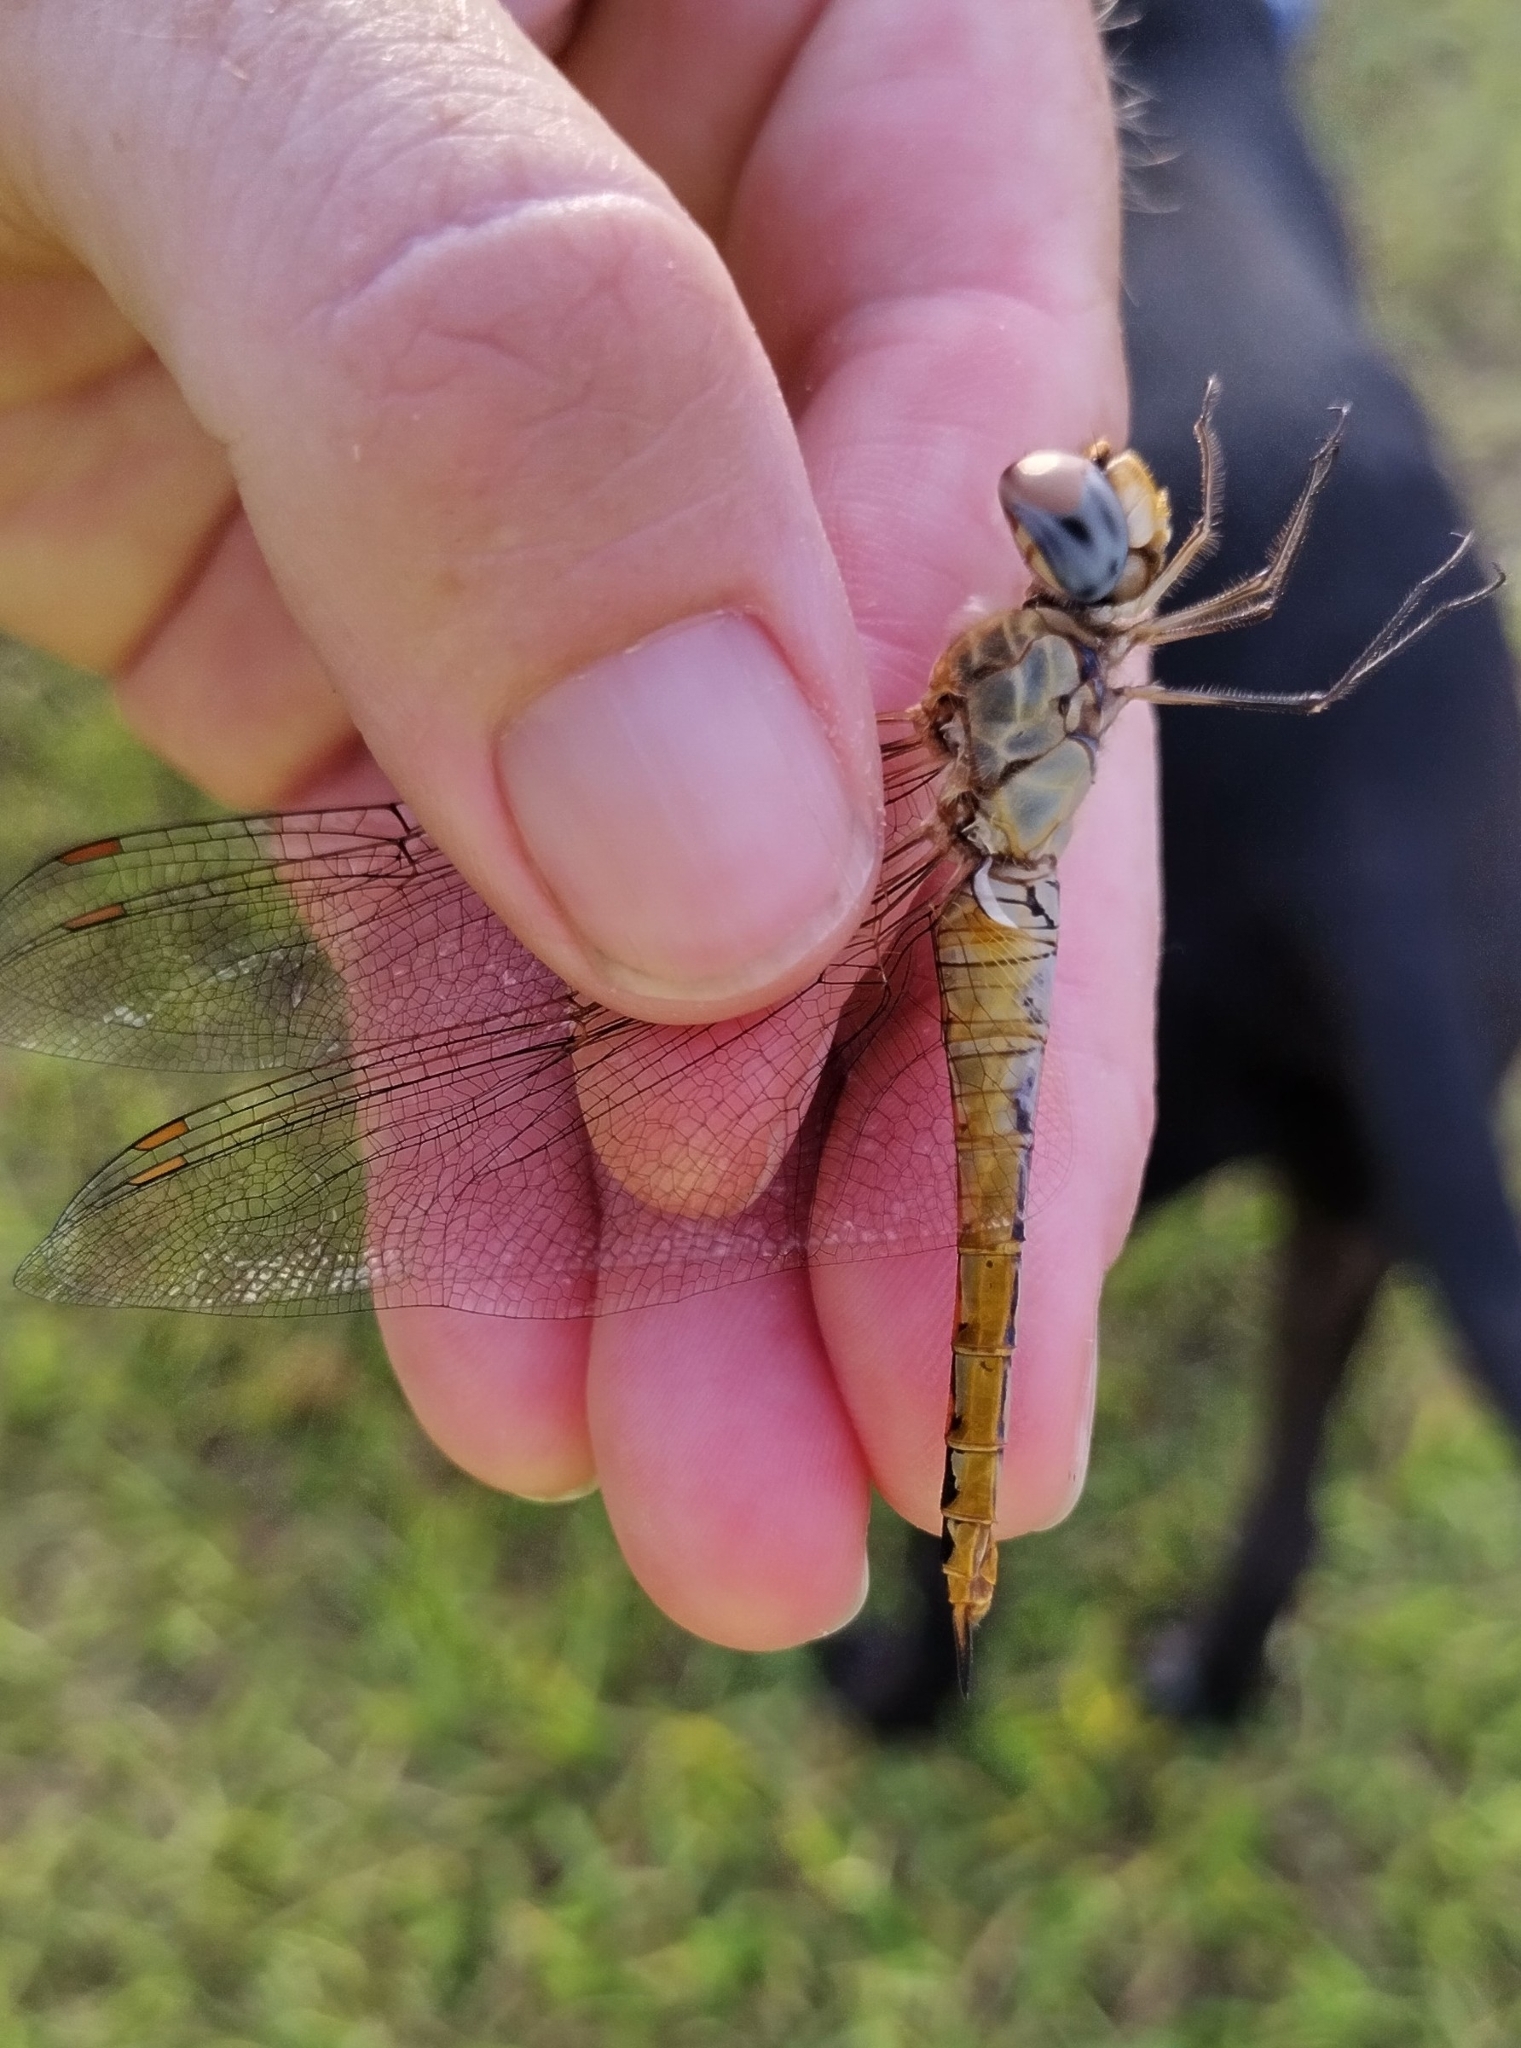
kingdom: Animalia
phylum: Arthropoda
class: Insecta
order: Odonata
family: Libellulidae
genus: Pantala
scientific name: Pantala flavescens
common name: Wandering glider
